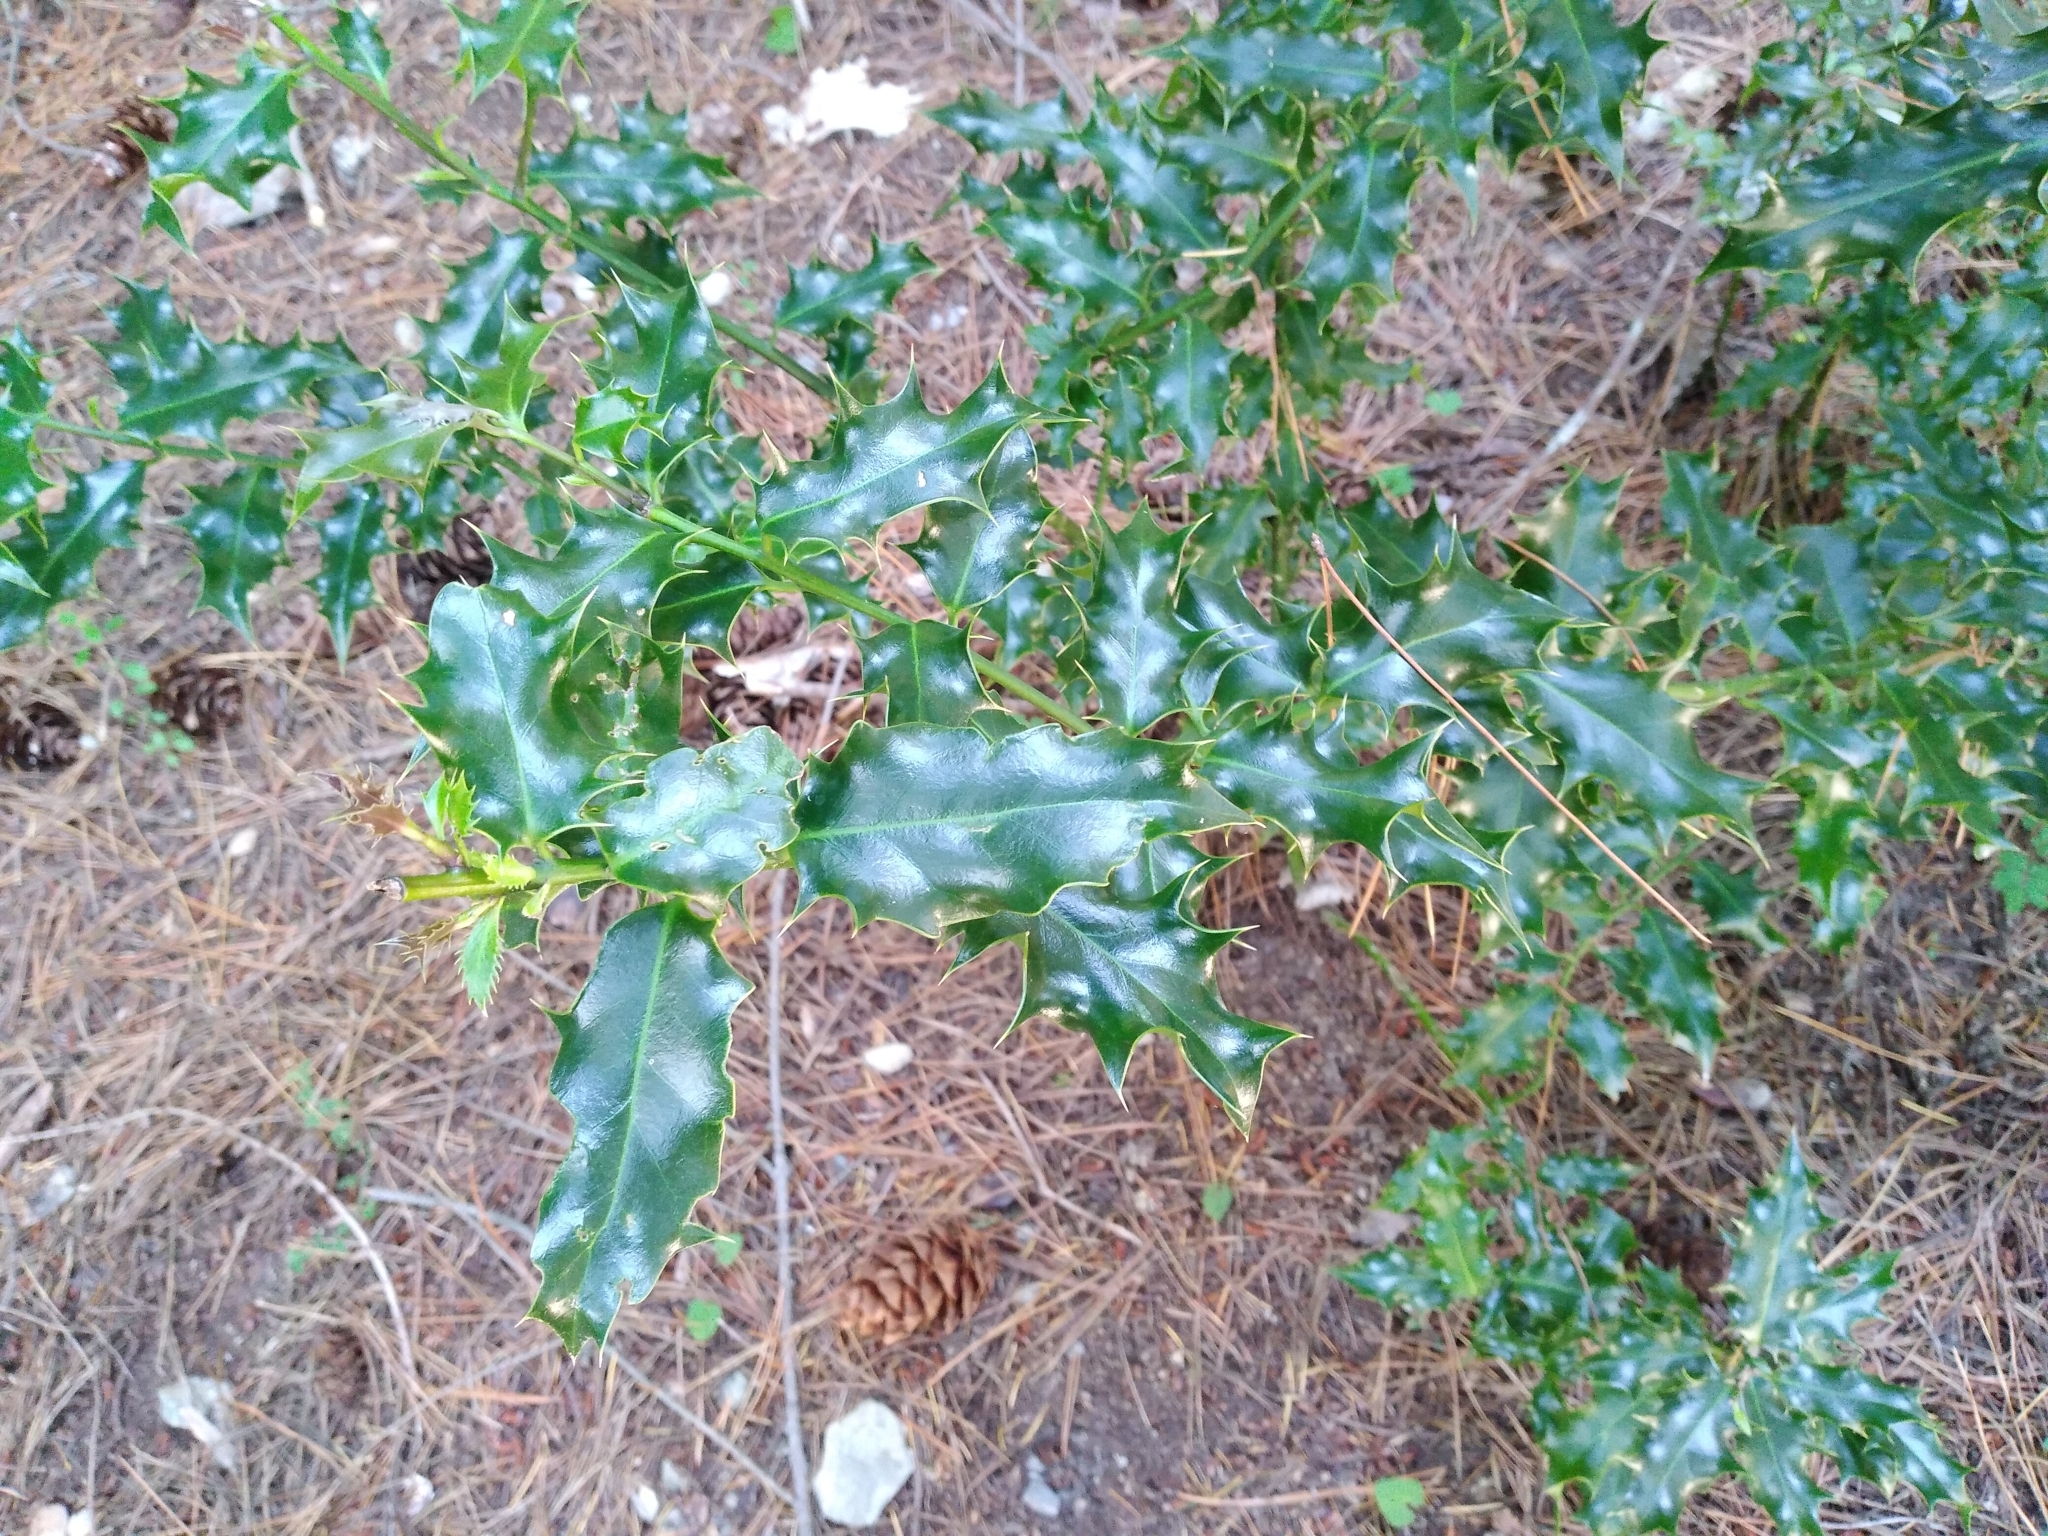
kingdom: Plantae
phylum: Tracheophyta
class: Magnoliopsida
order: Aquifoliales
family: Aquifoliaceae
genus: Ilex
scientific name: Ilex aquifolium
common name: English holly
